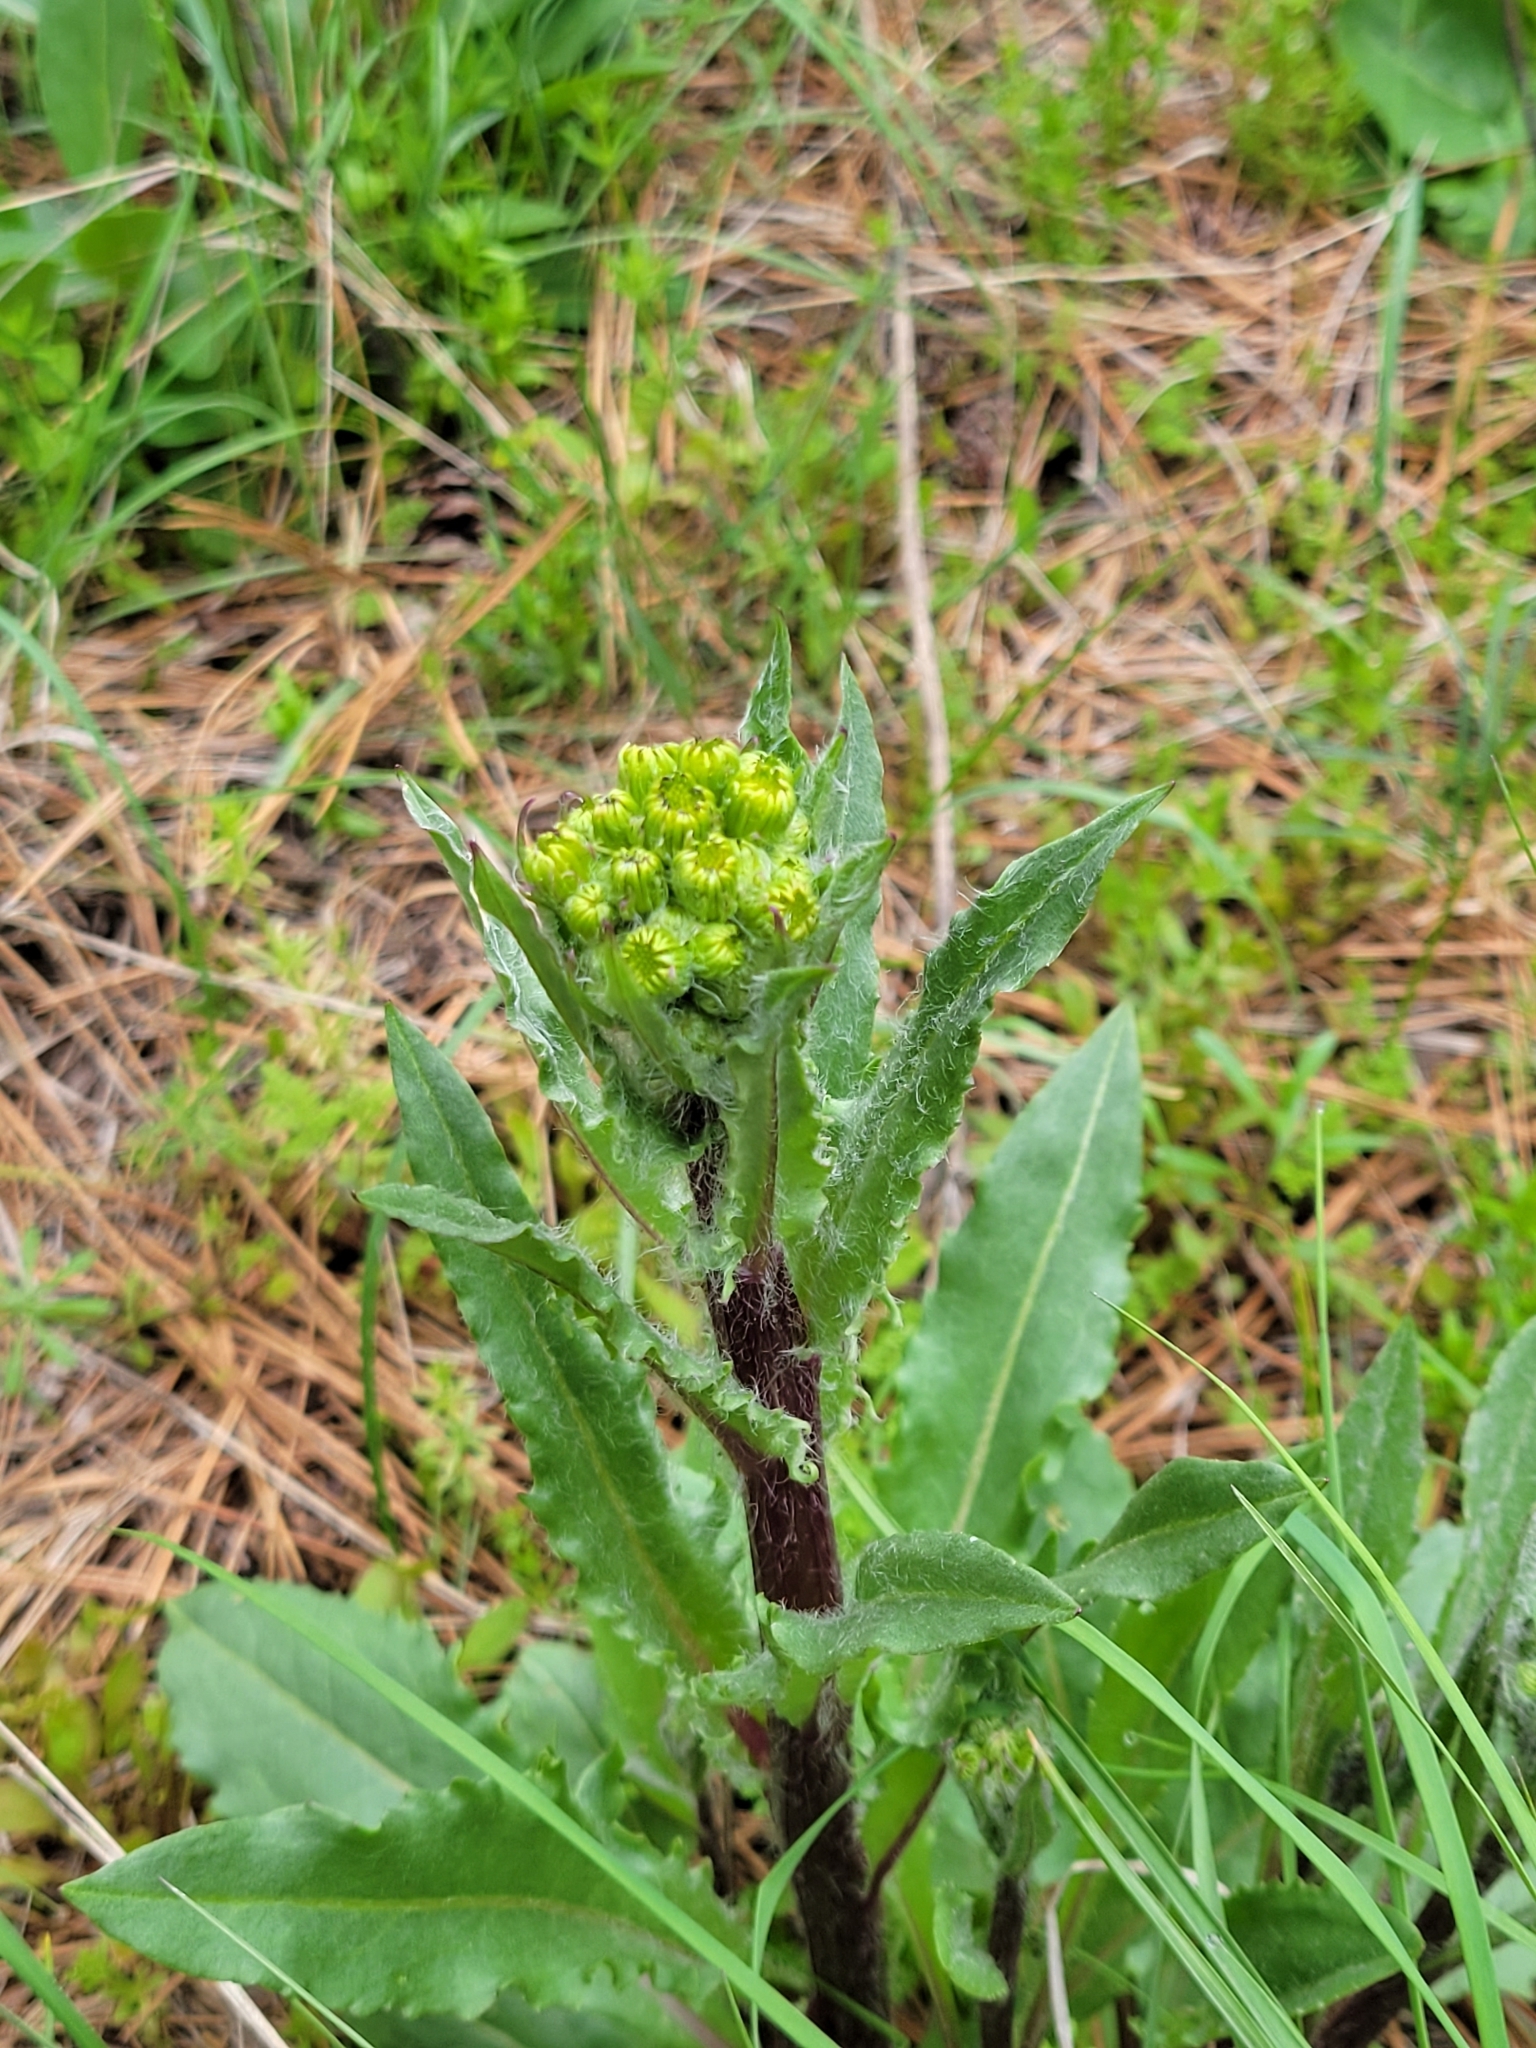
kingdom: Plantae
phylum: Tracheophyta
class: Magnoliopsida
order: Asterales
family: Asteraceae
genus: Senecio
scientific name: Senecio integerrimus
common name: Gaugeplant
